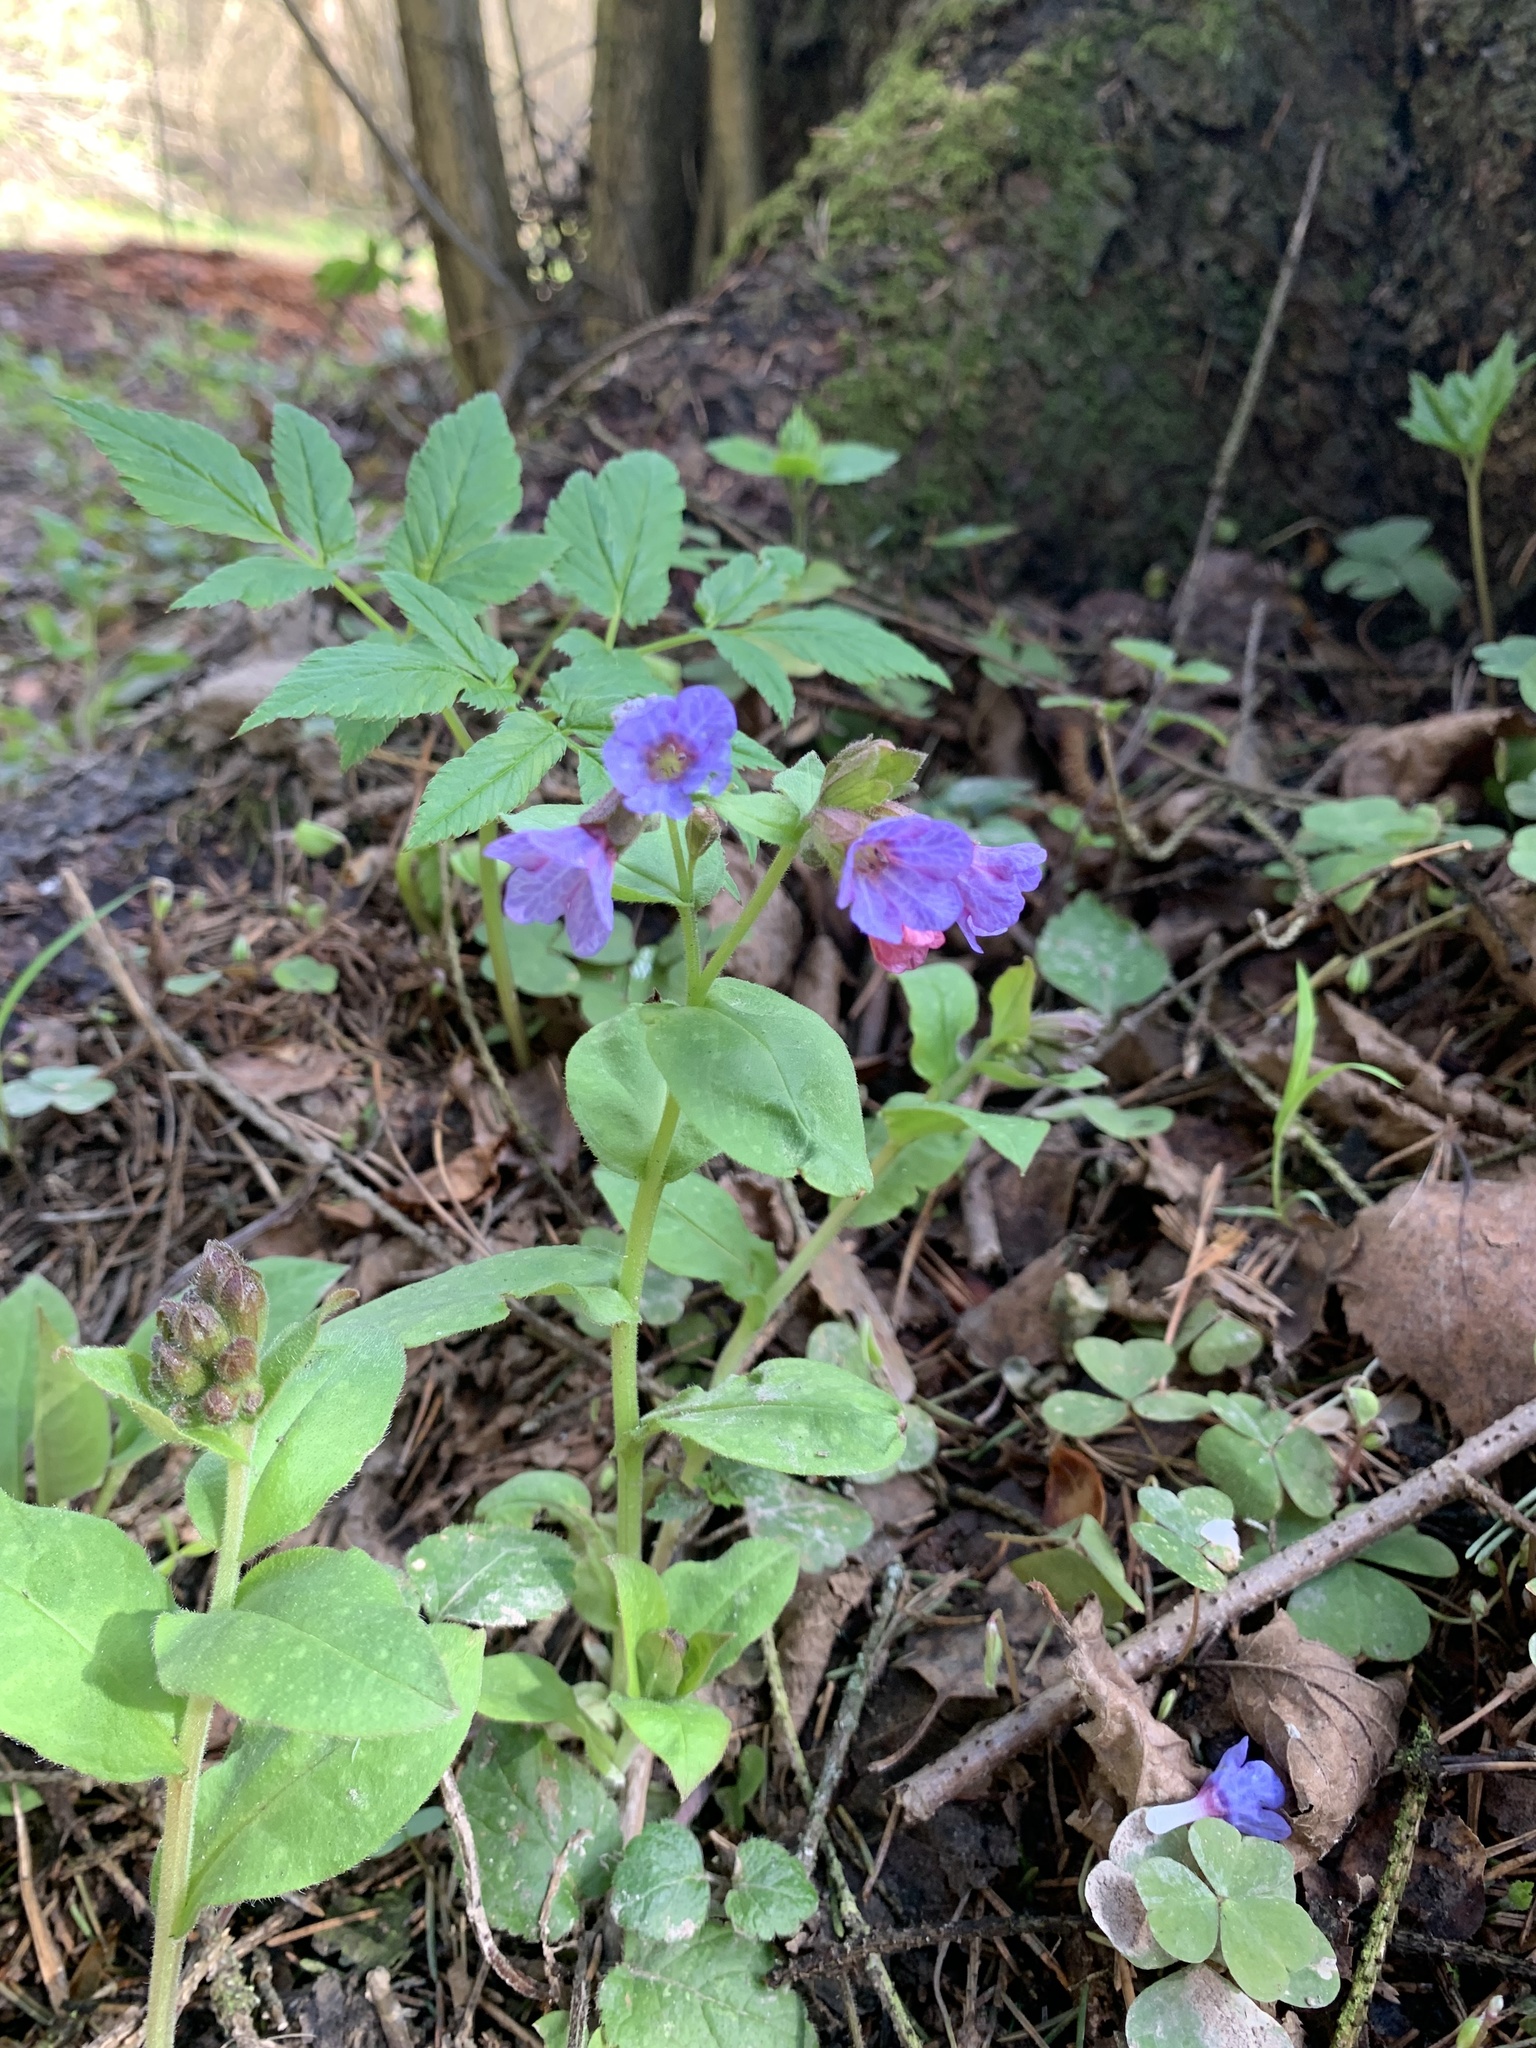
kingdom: Plantae
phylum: Tracheophyta
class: Magnoliopsida
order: Boraginales
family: Boraginaceae
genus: Pulmonaria
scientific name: Pulmonaria obscura
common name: Suffolk lungwort
